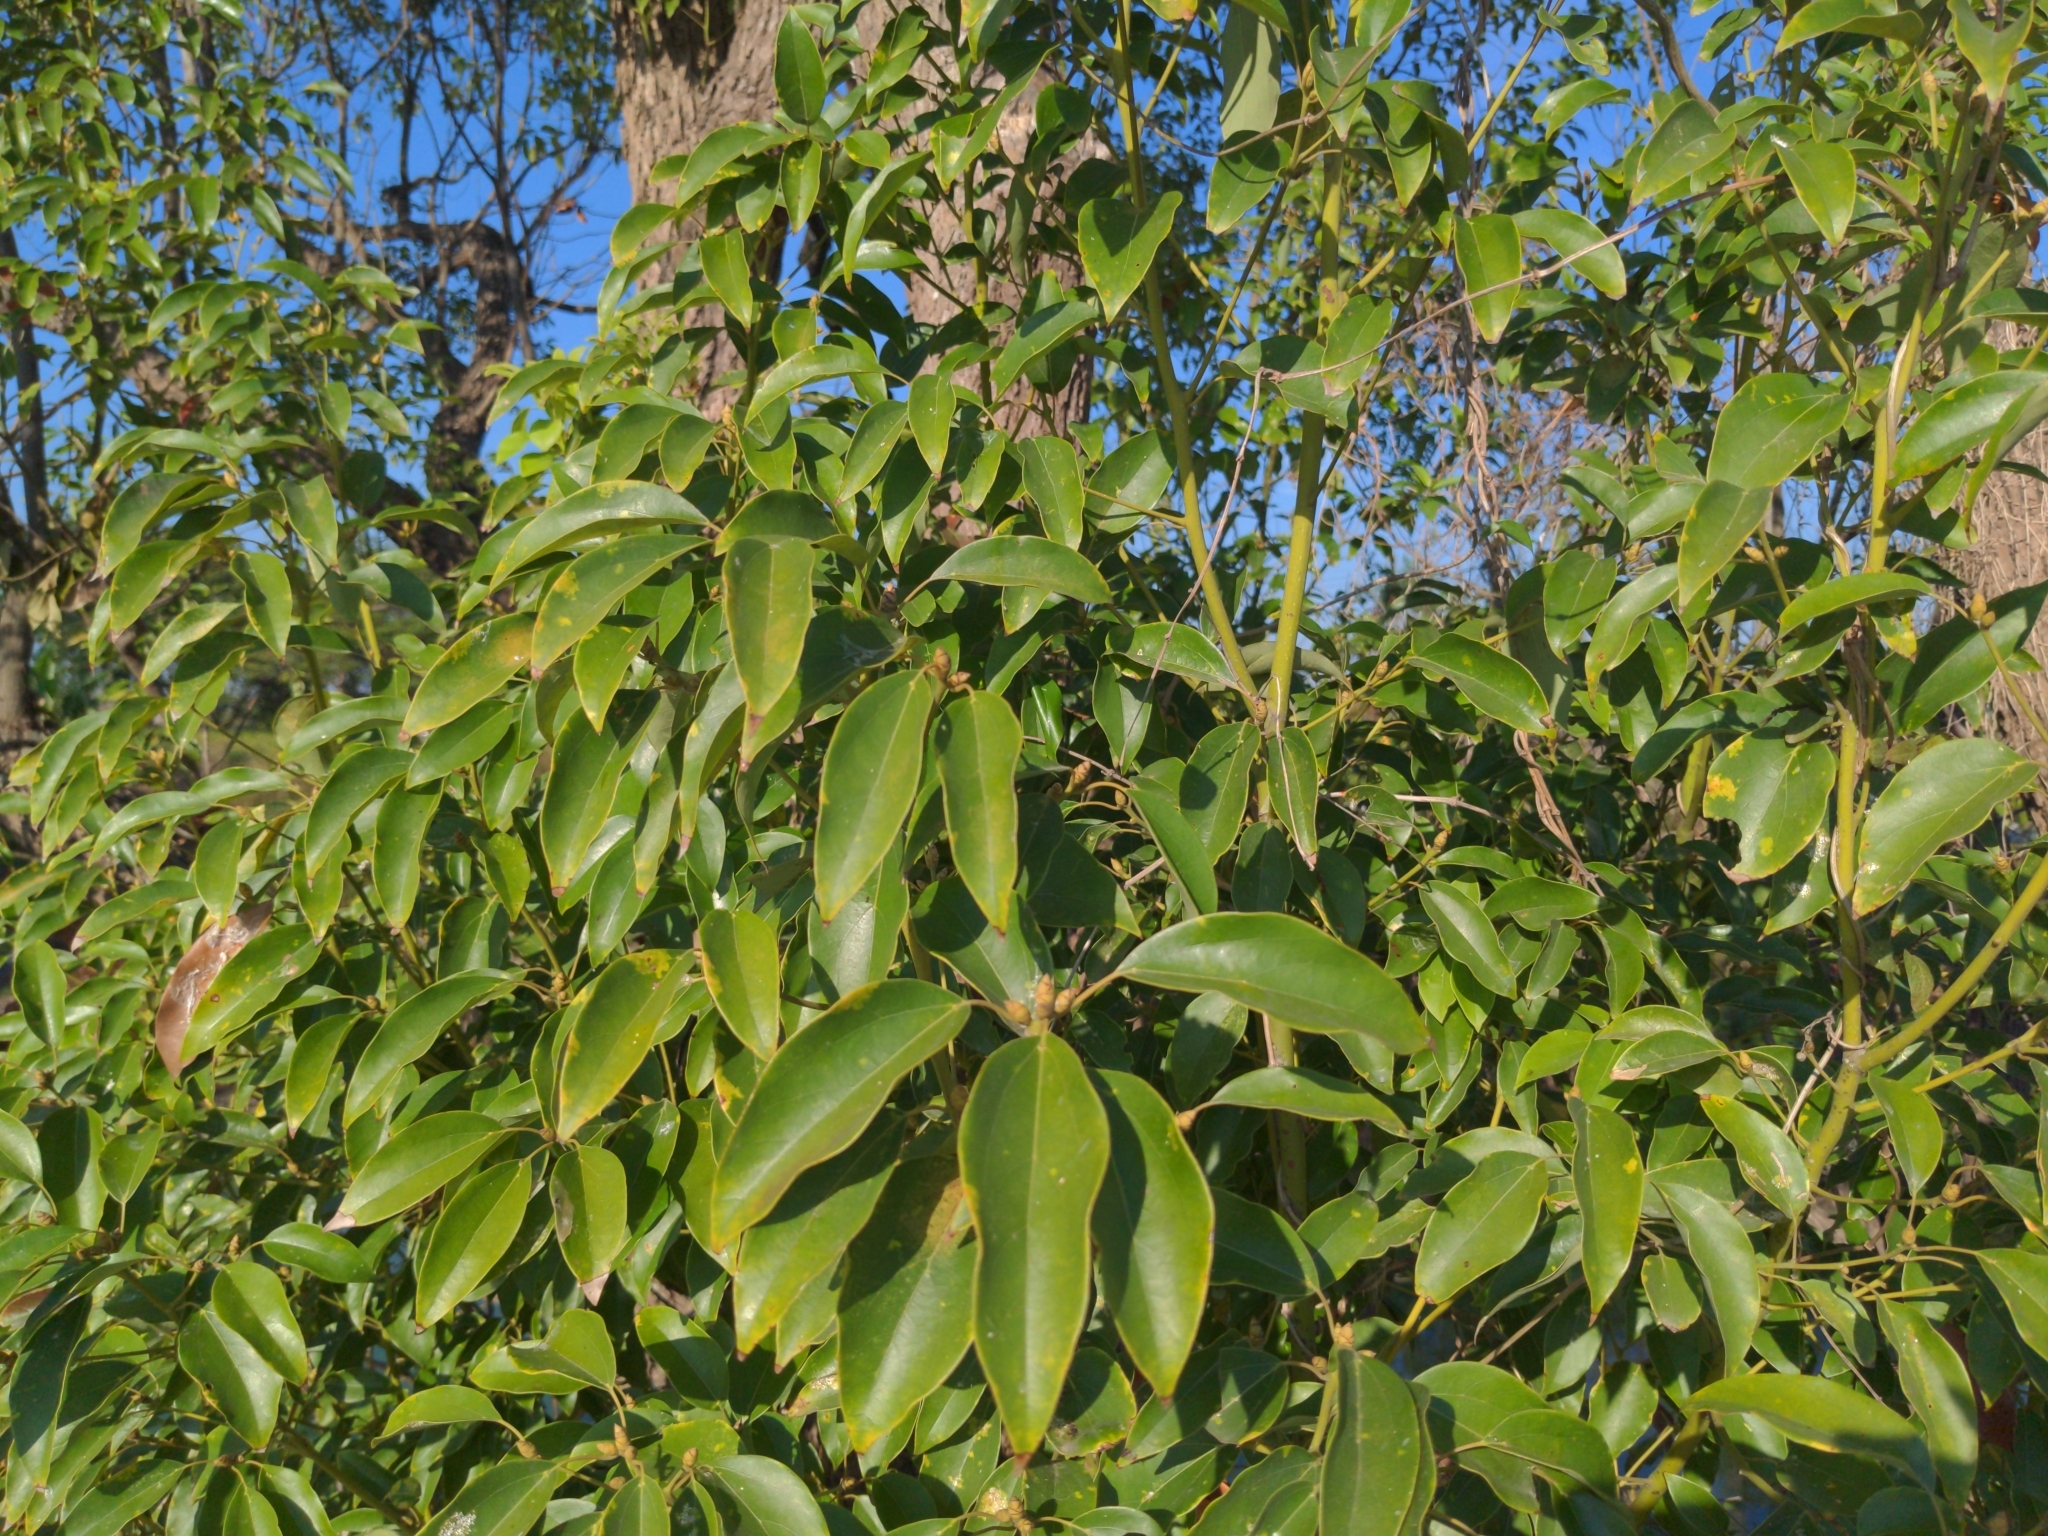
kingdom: Plantae
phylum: Tracheophyta
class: Magnoliopsida
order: Laurales
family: Lauraceae
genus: Cinnamomum
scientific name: Cinnamomum camphora
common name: Camphortree
